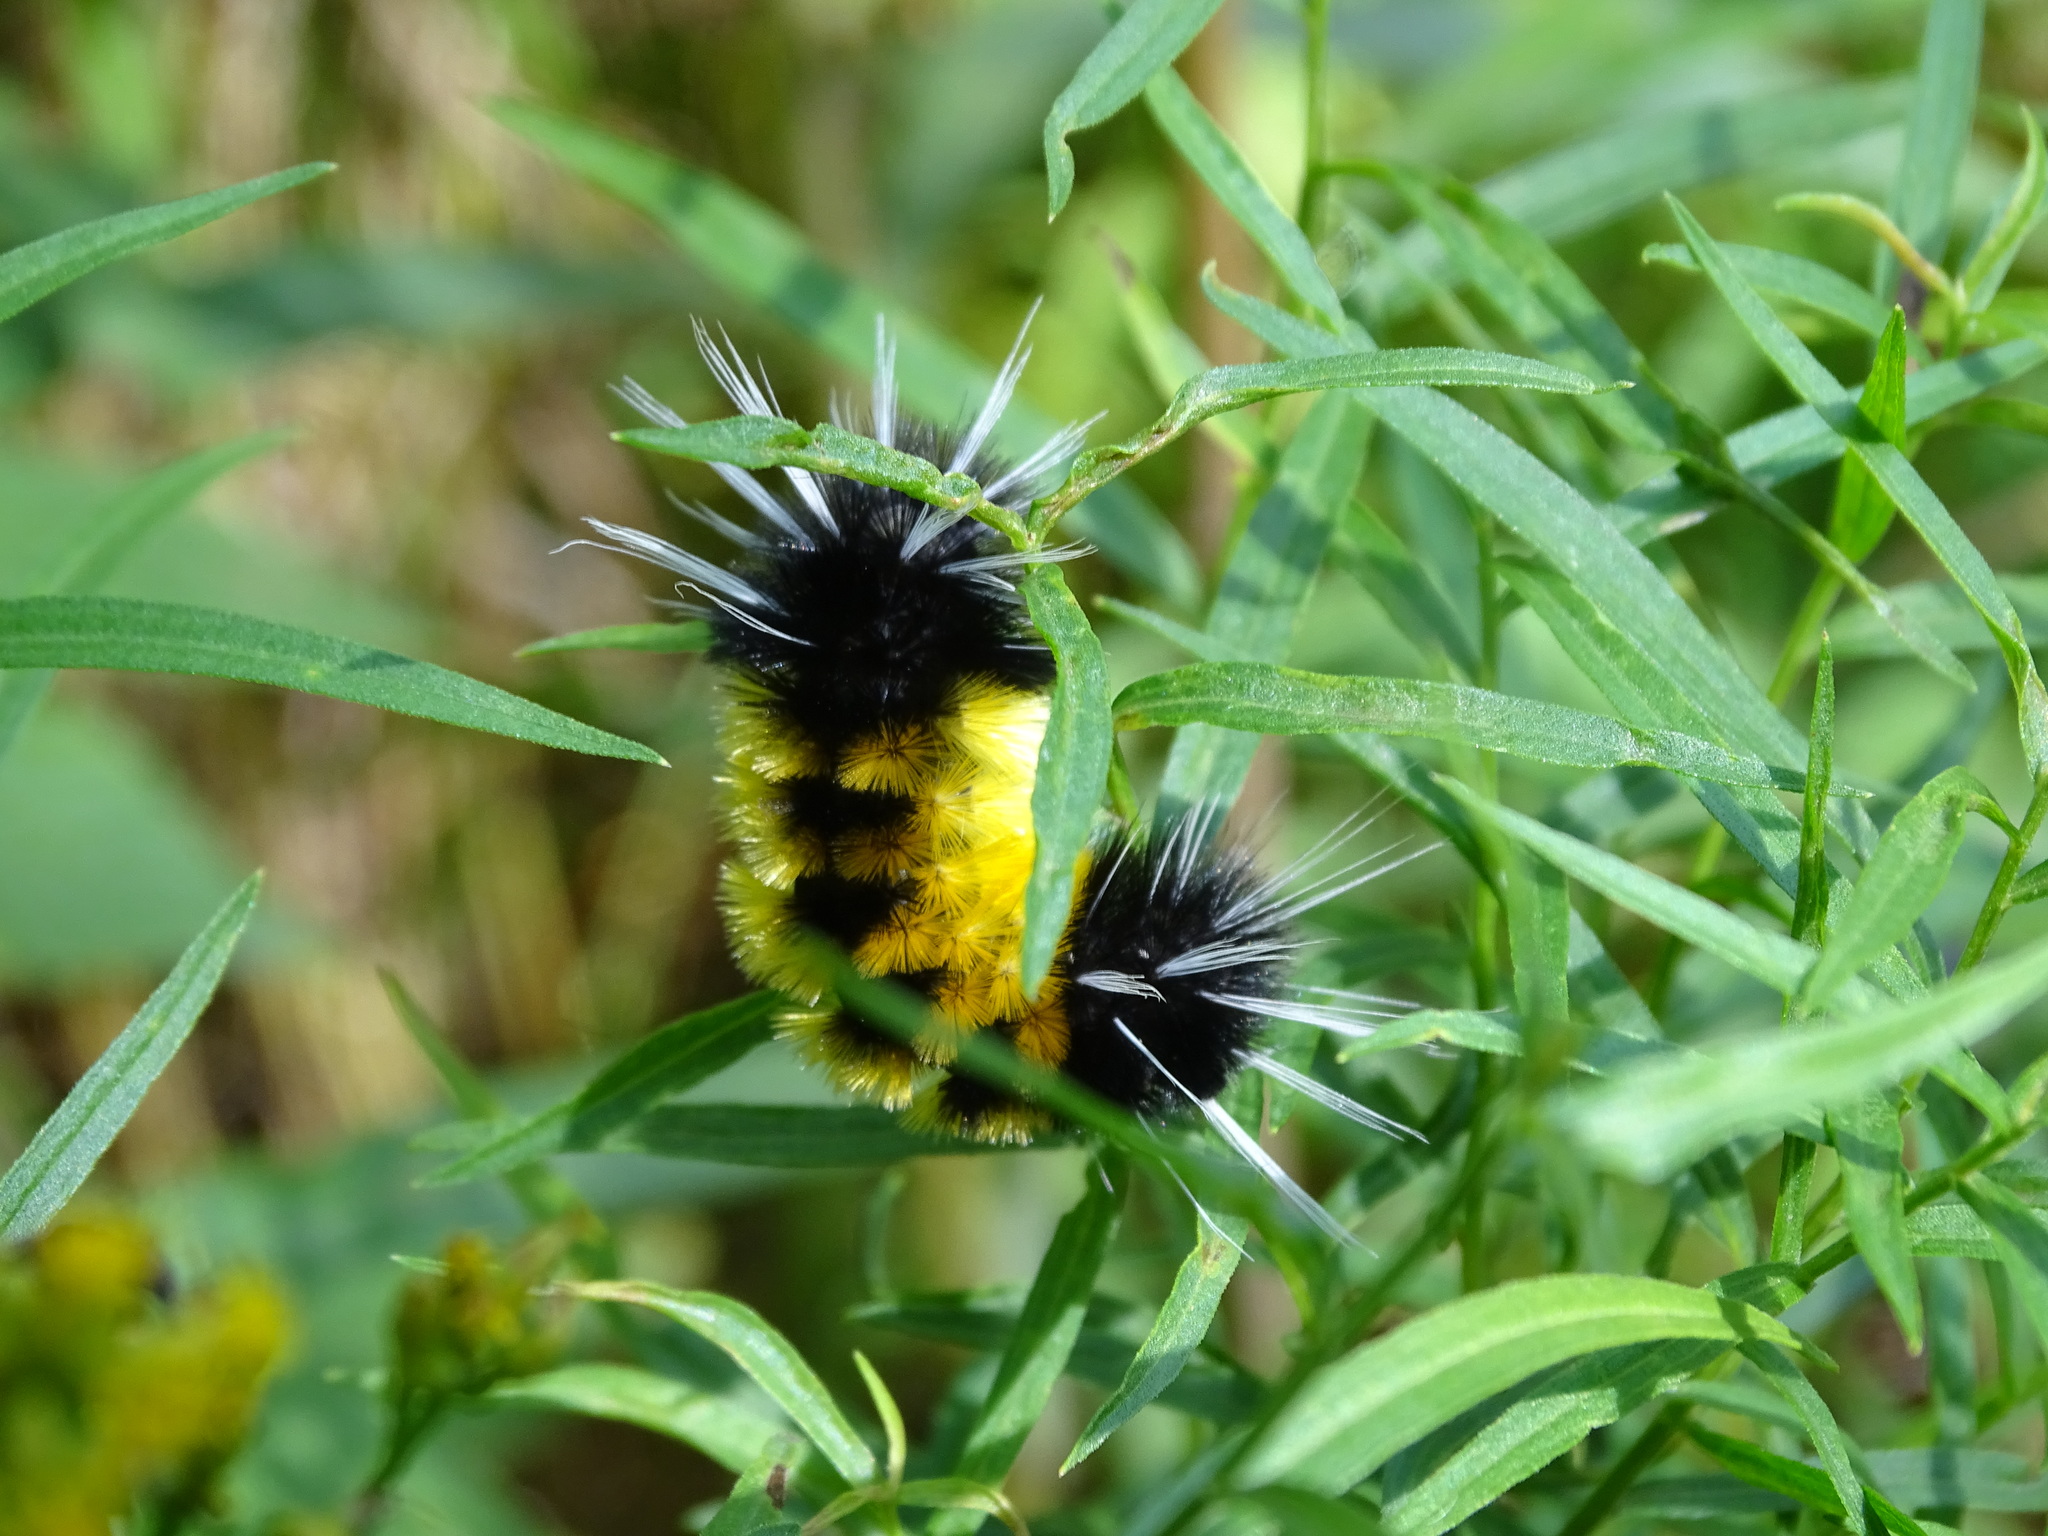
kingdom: Animalia
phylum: Arthropoda
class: Insecta
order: Lepidoptera
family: Erebidae
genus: Lophocampa
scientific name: Lophocampa maculata
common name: Spotted tussock moth
